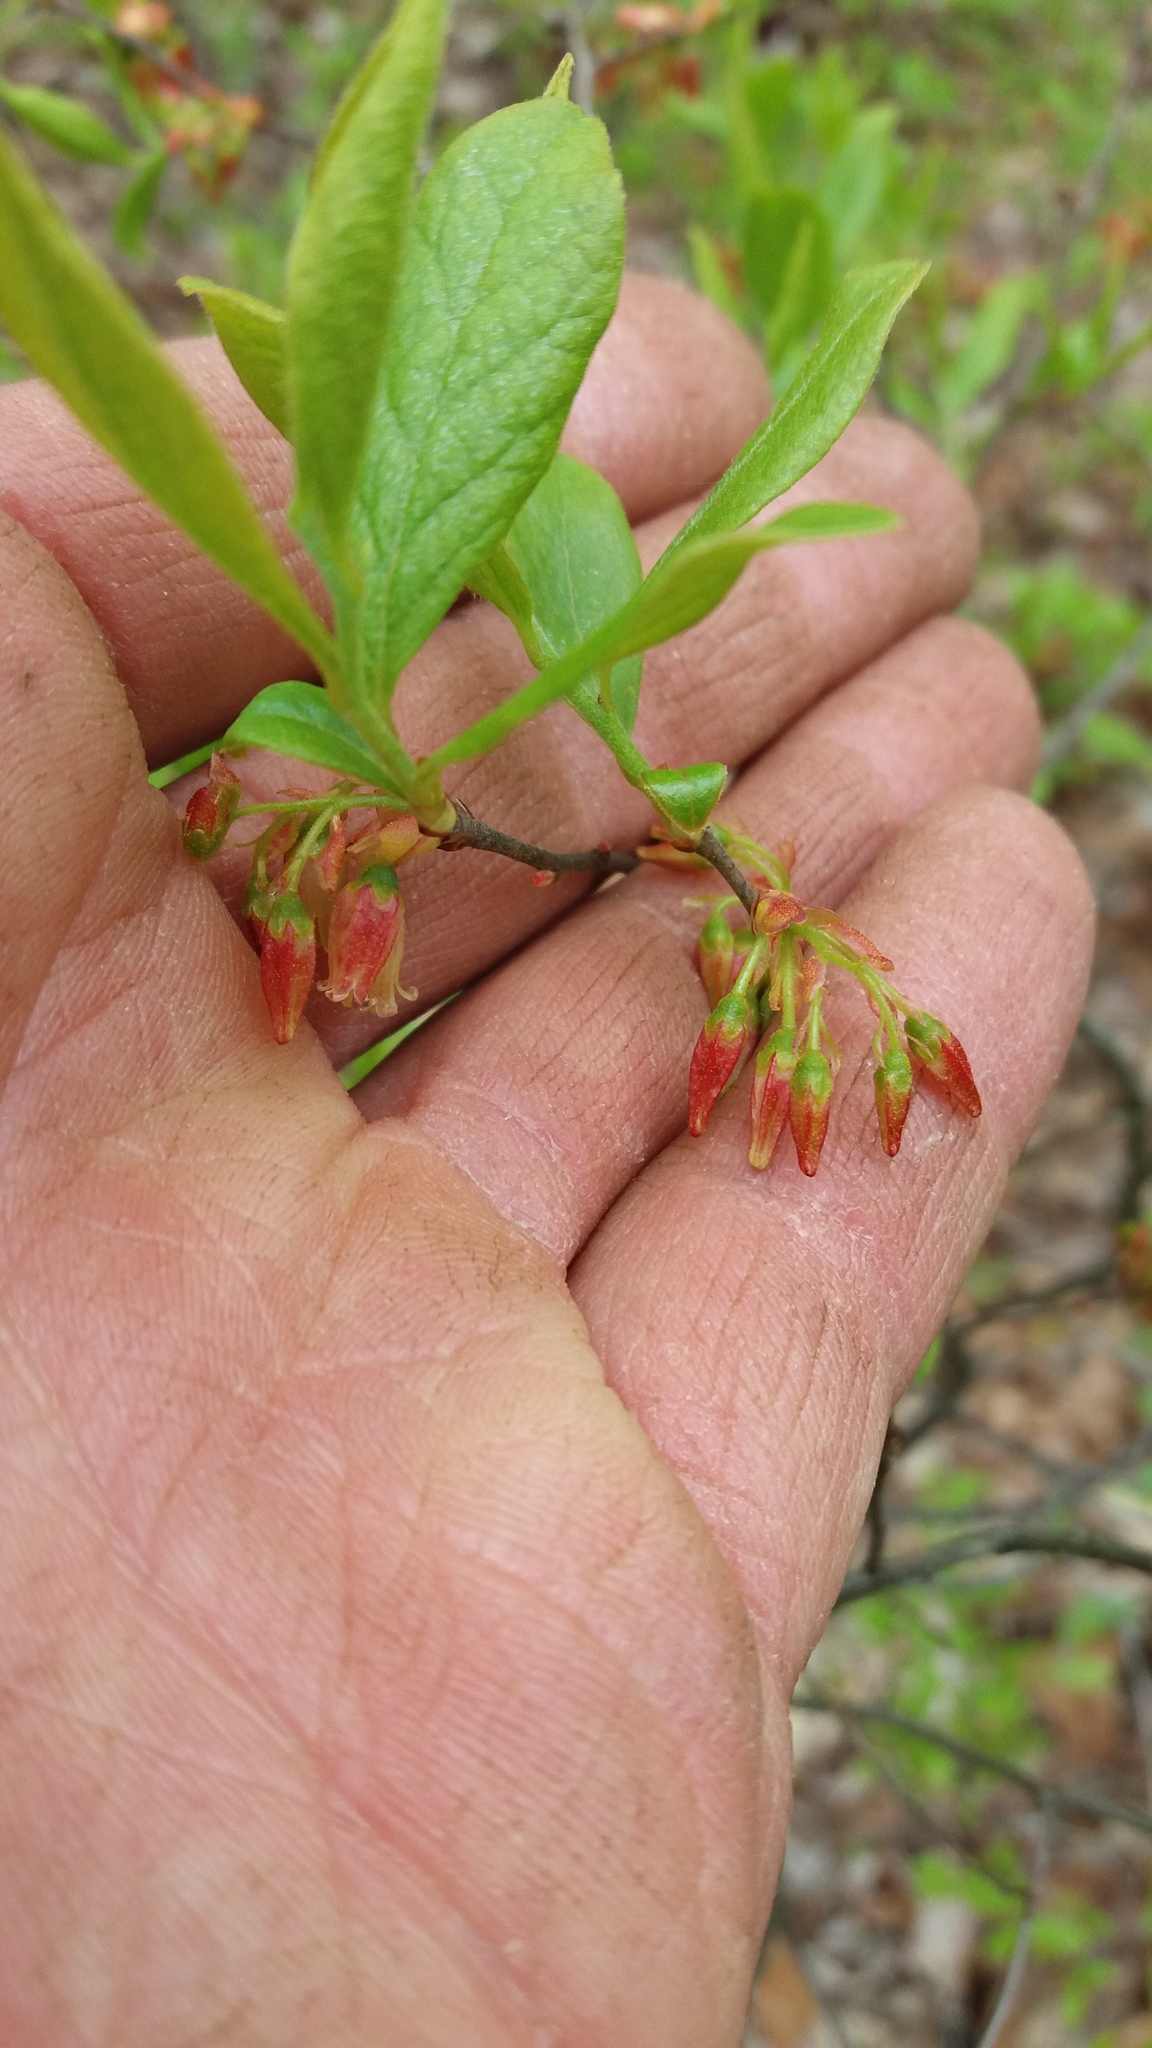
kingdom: Plantae
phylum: Tracheophyta
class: Magnoliopsida
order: Ericales
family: Ericaceae
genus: Gaylussacia
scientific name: Gaylussacia baccata
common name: Black huckleberry
